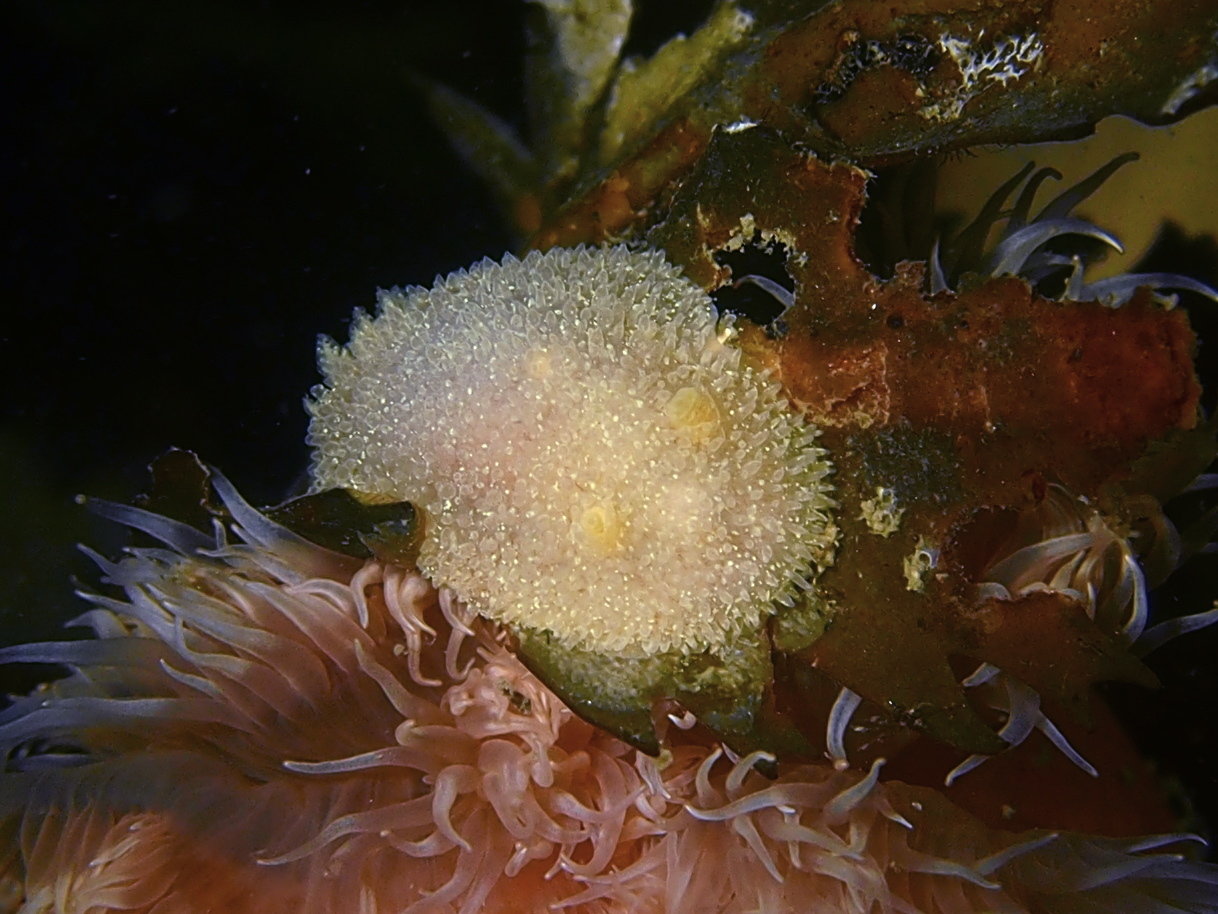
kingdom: Animalia
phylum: Mollusca
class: Gastropoda
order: Nudibranchia
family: Onchidorididae
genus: Acanthodoris
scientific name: Acanthodoris pilosa
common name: Hairy spiny doris
